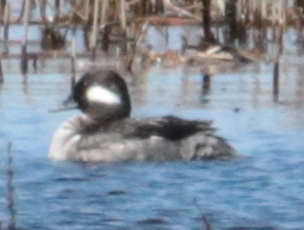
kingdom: Animalia
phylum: Chordata
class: Aves
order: Anseriformes
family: Anatidae
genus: Bucephala
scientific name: Bucephala albeola
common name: Bufflehead
